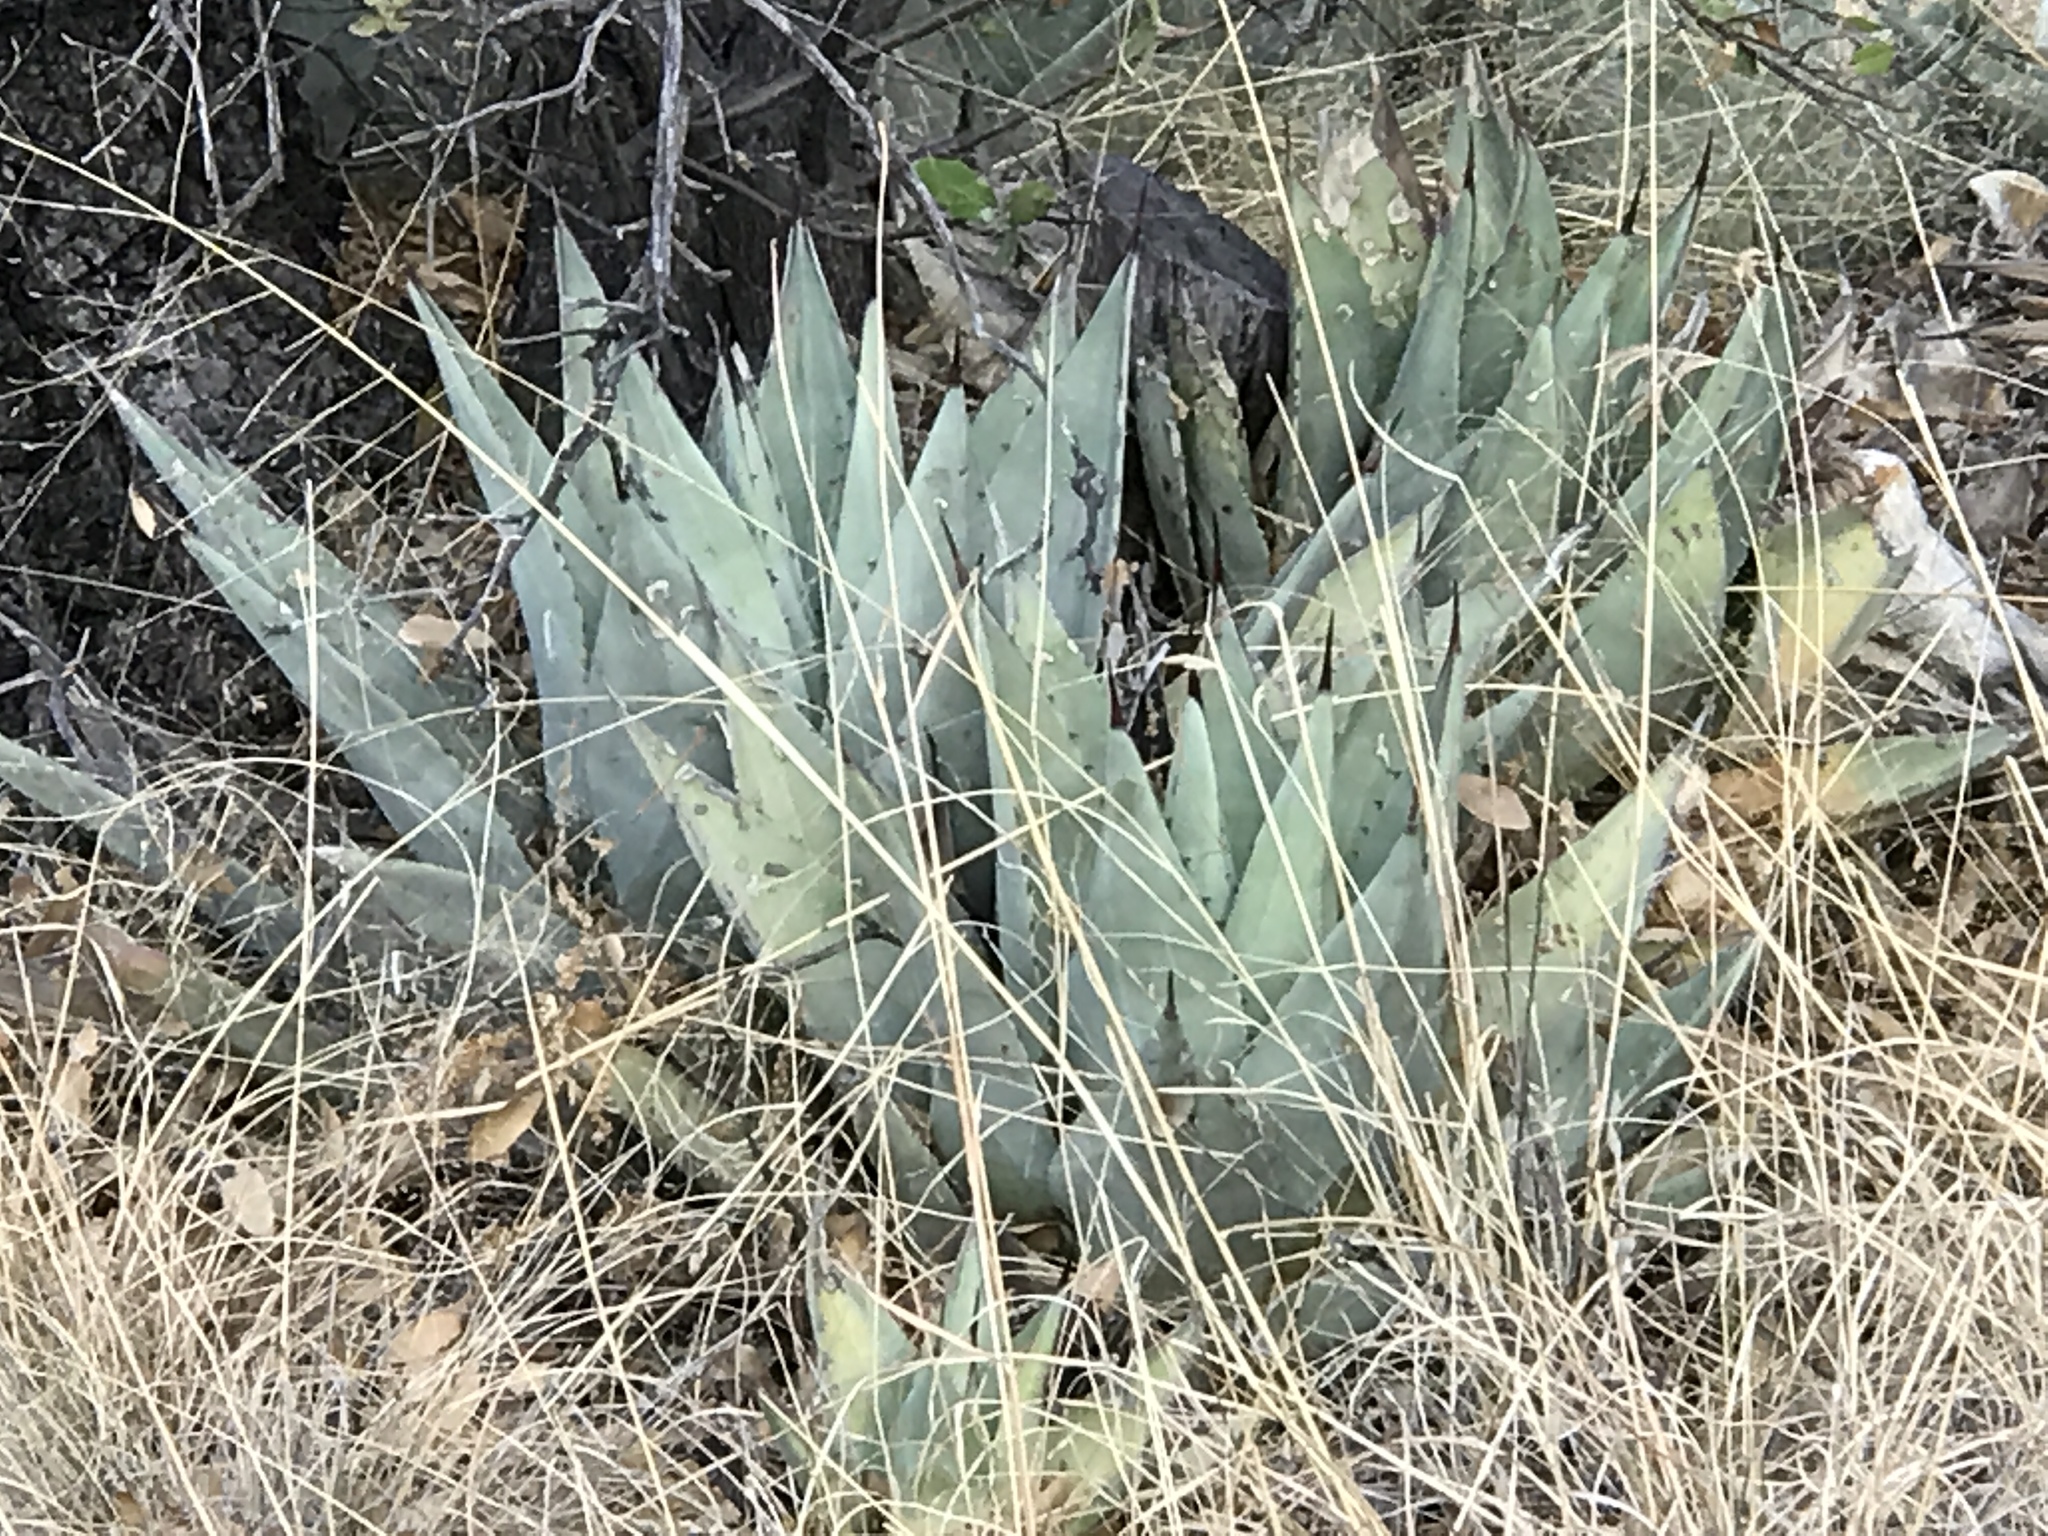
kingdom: Plantae
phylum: Tracheophyta
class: Liliopsida
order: Asparagales
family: Asparagaceae
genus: Agave
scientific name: Agave parryi
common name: Parry's agave
